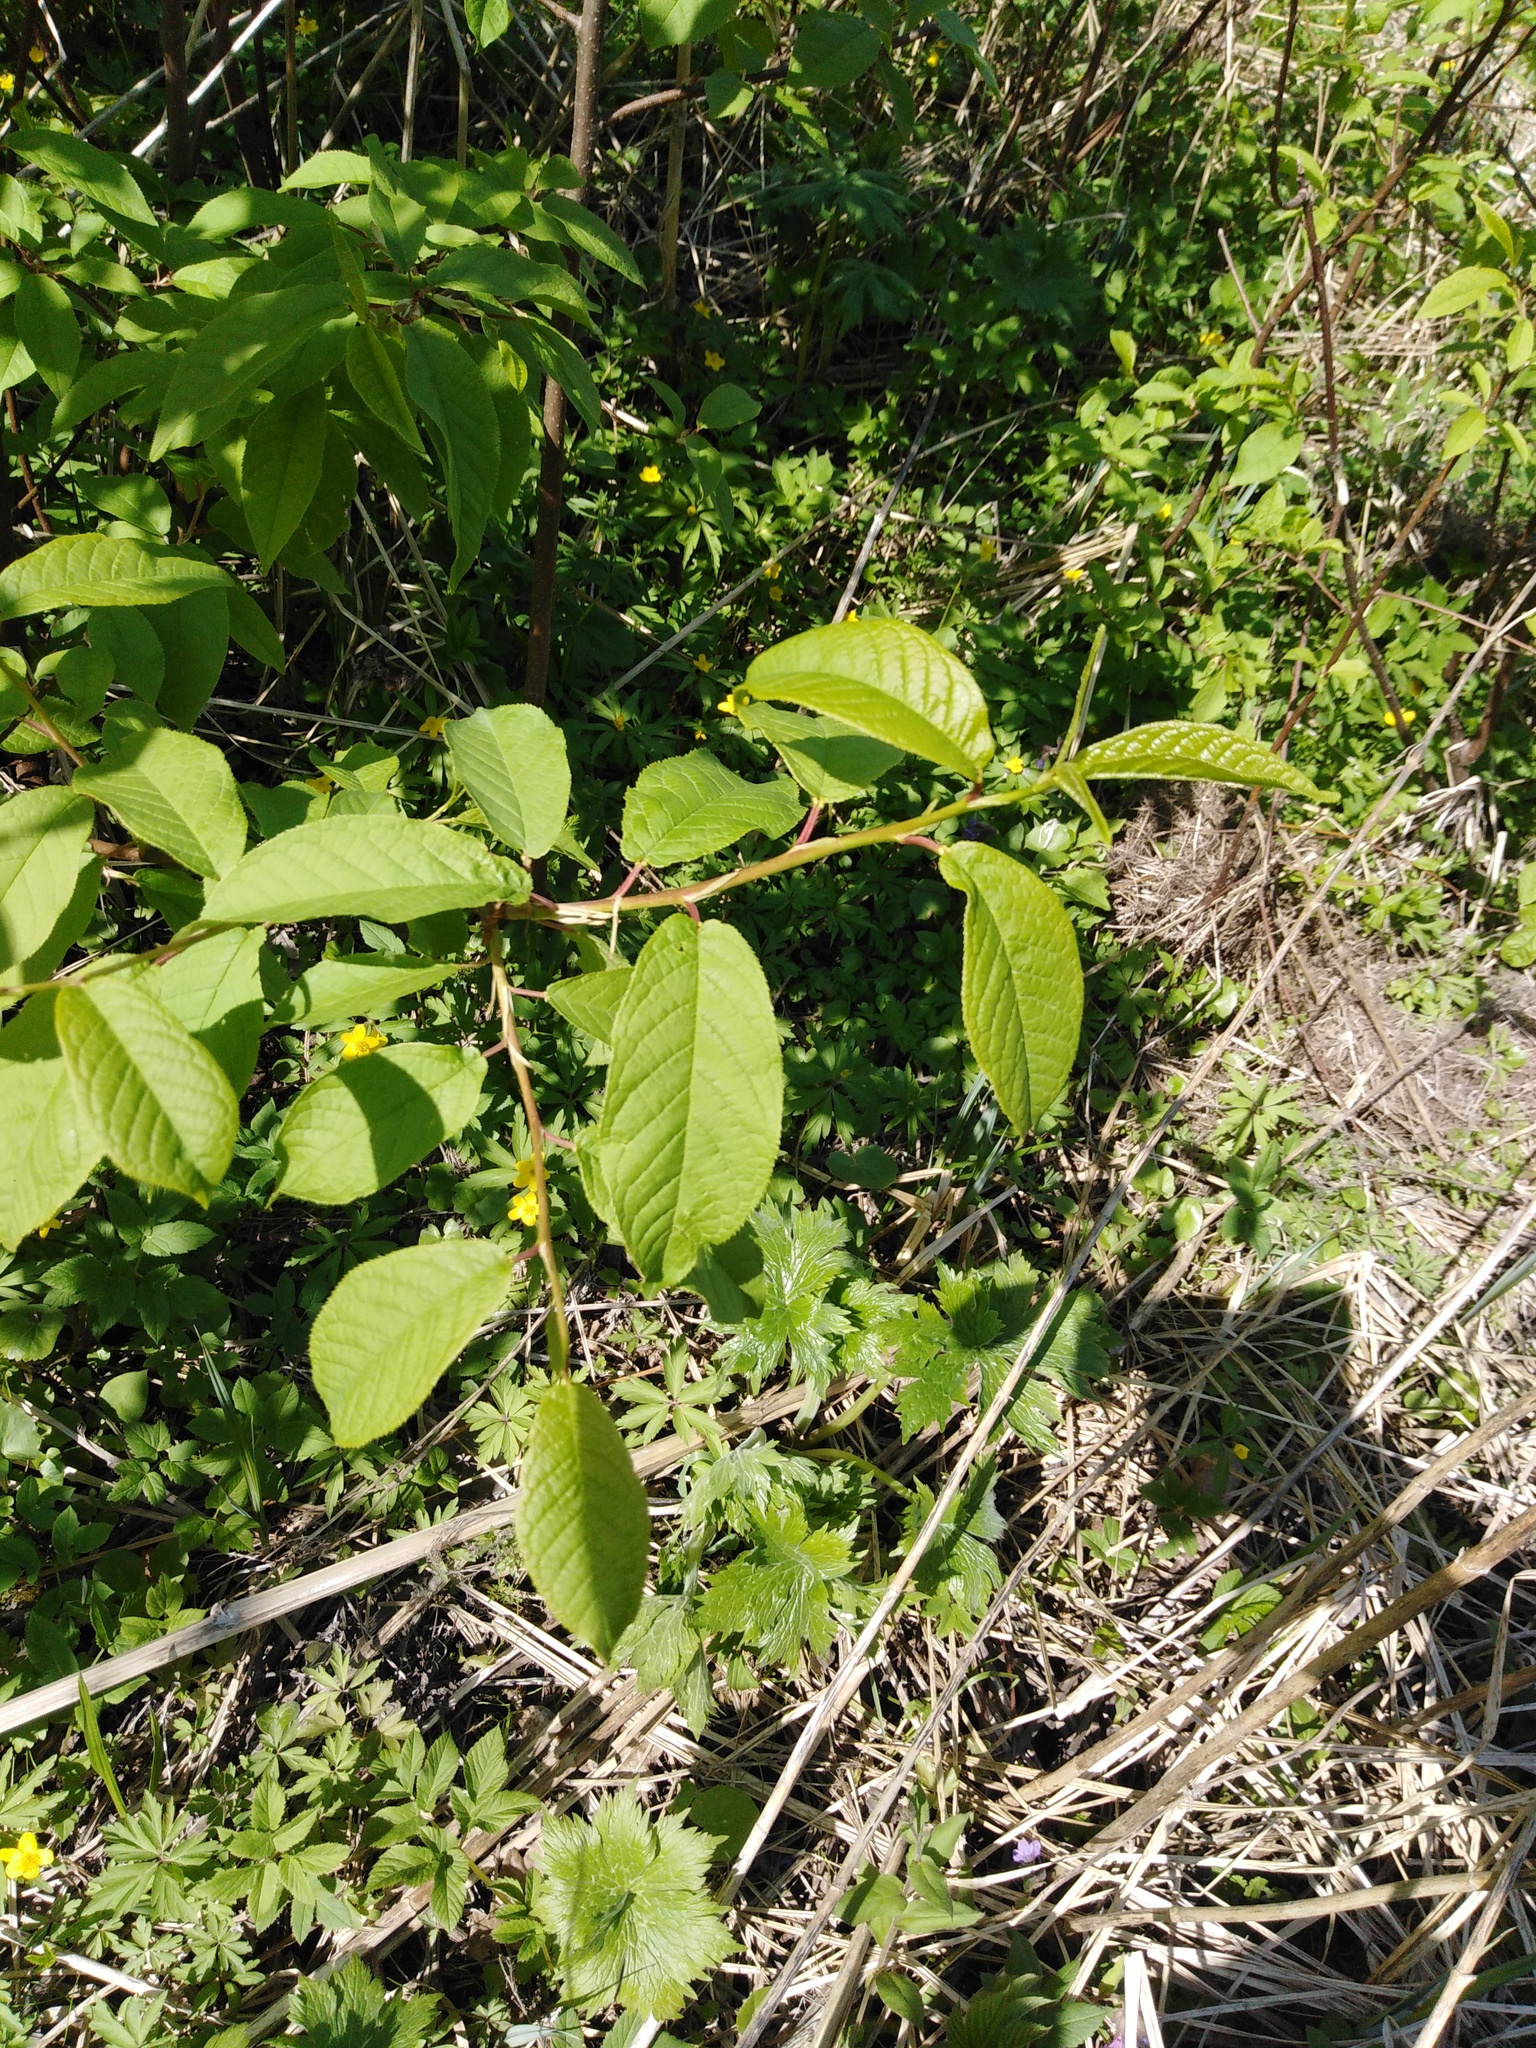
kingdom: Plantae
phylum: Tracheophyta
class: Magnoliopsida
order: Rosales
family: Rosaceae
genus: Prunus
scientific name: Prunus padus
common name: Bird cherry
